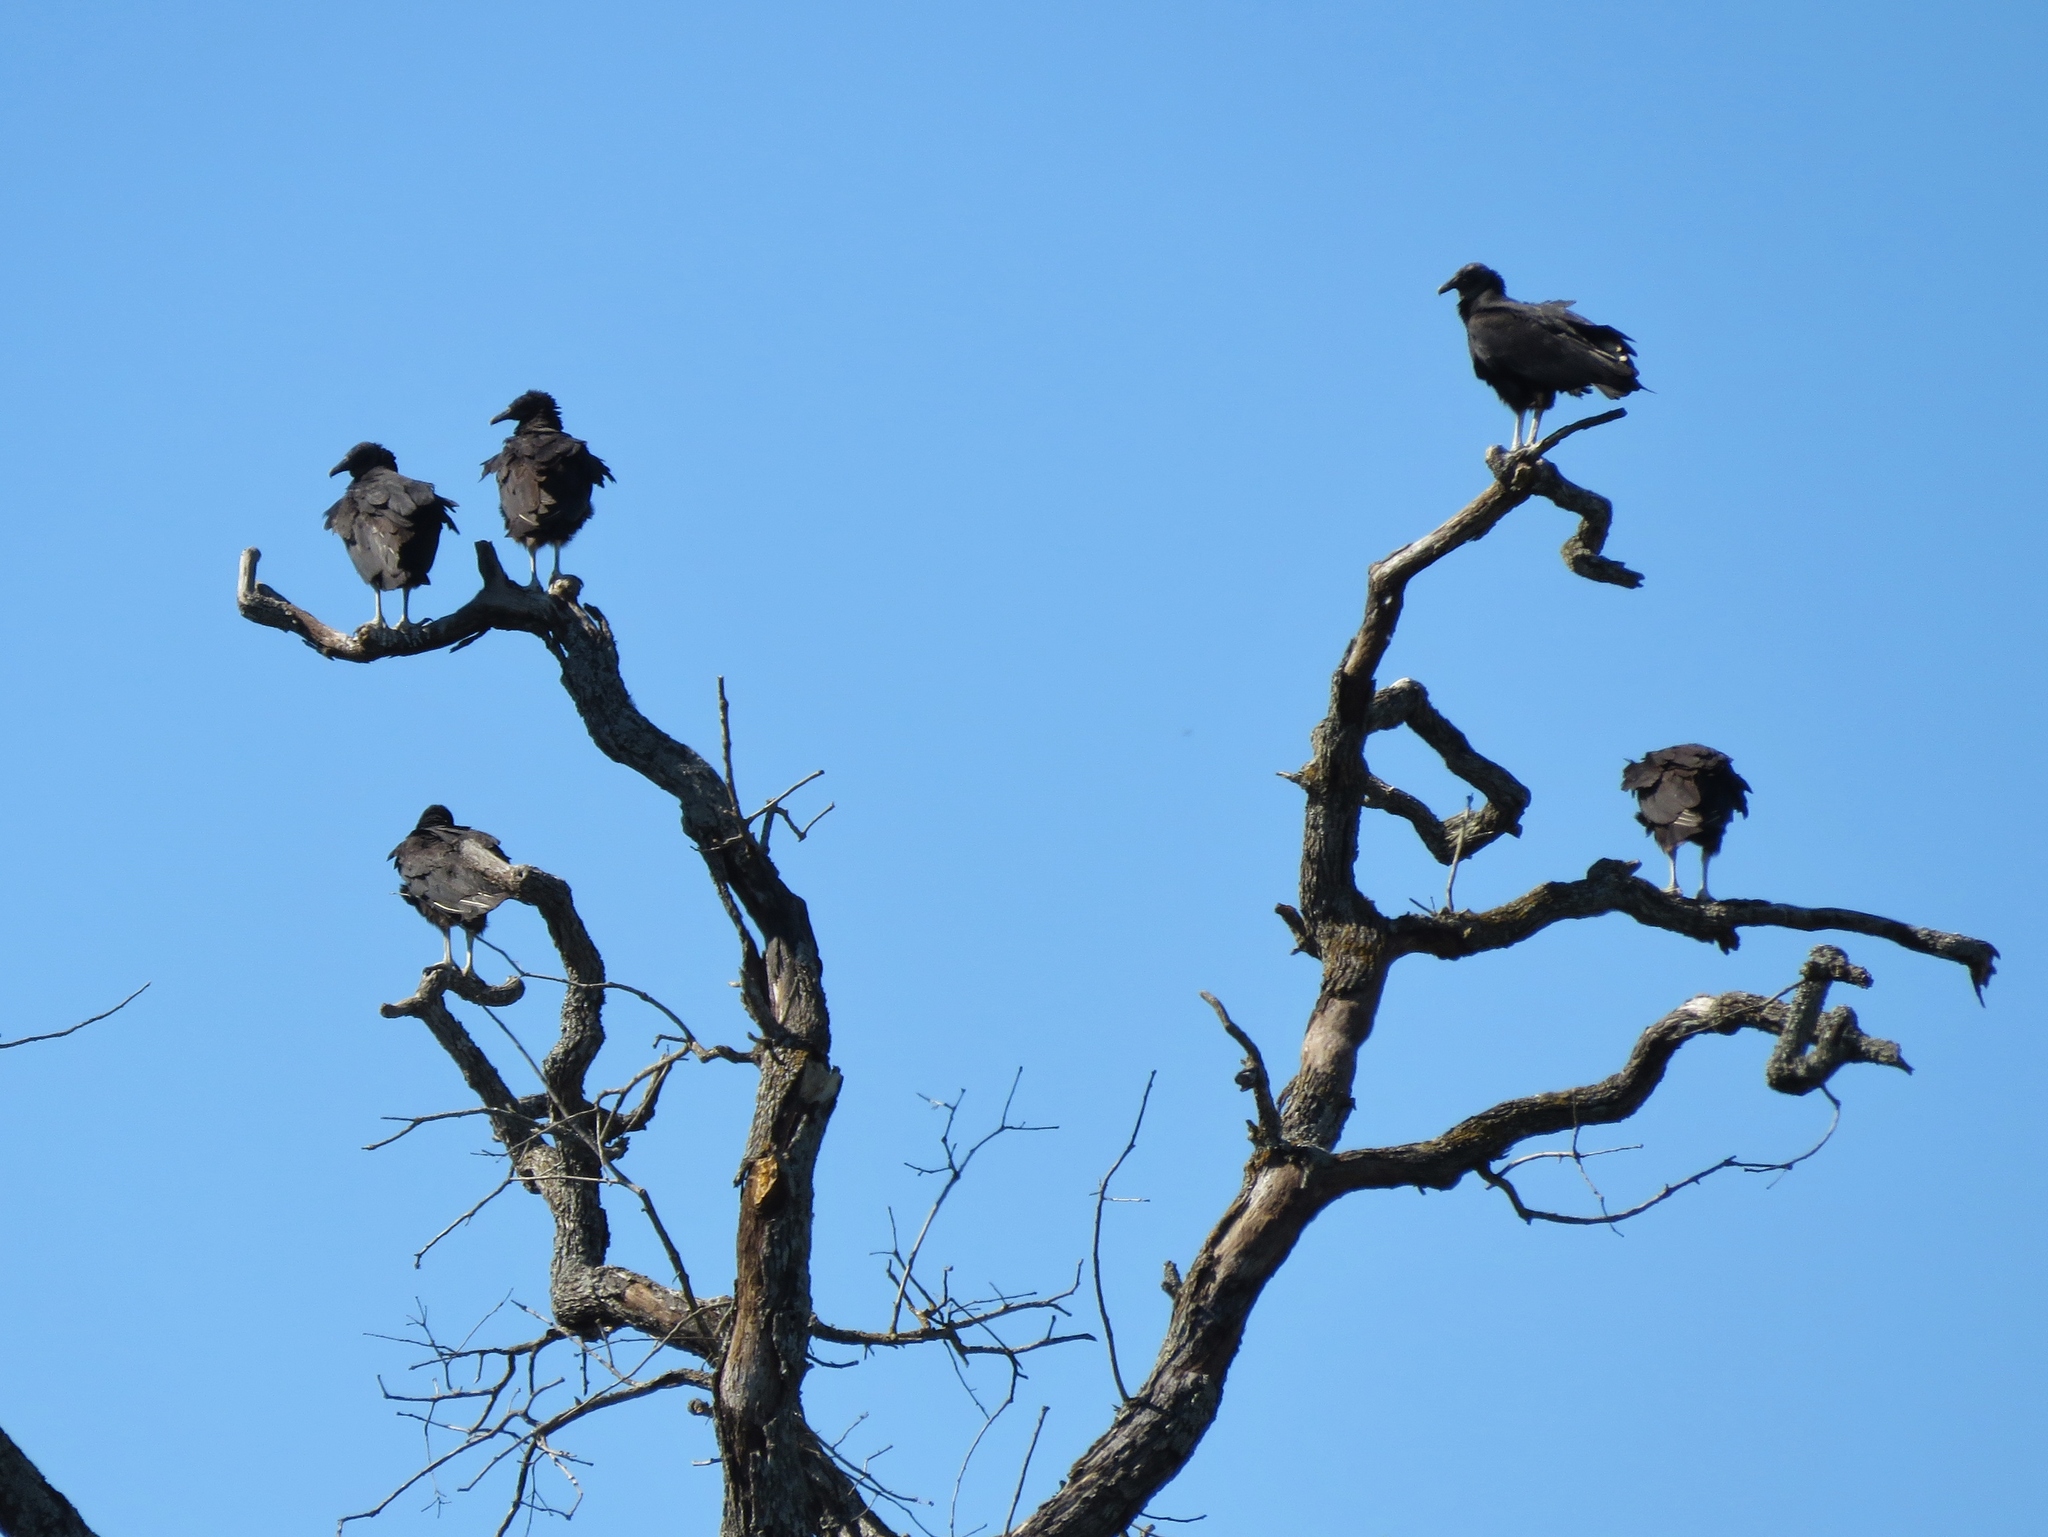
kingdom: Animalia
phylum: Chordata
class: Aves
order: Accipitriformes
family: Cathartidae
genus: Coragyps
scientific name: Coragyps atratus
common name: Black vulture
